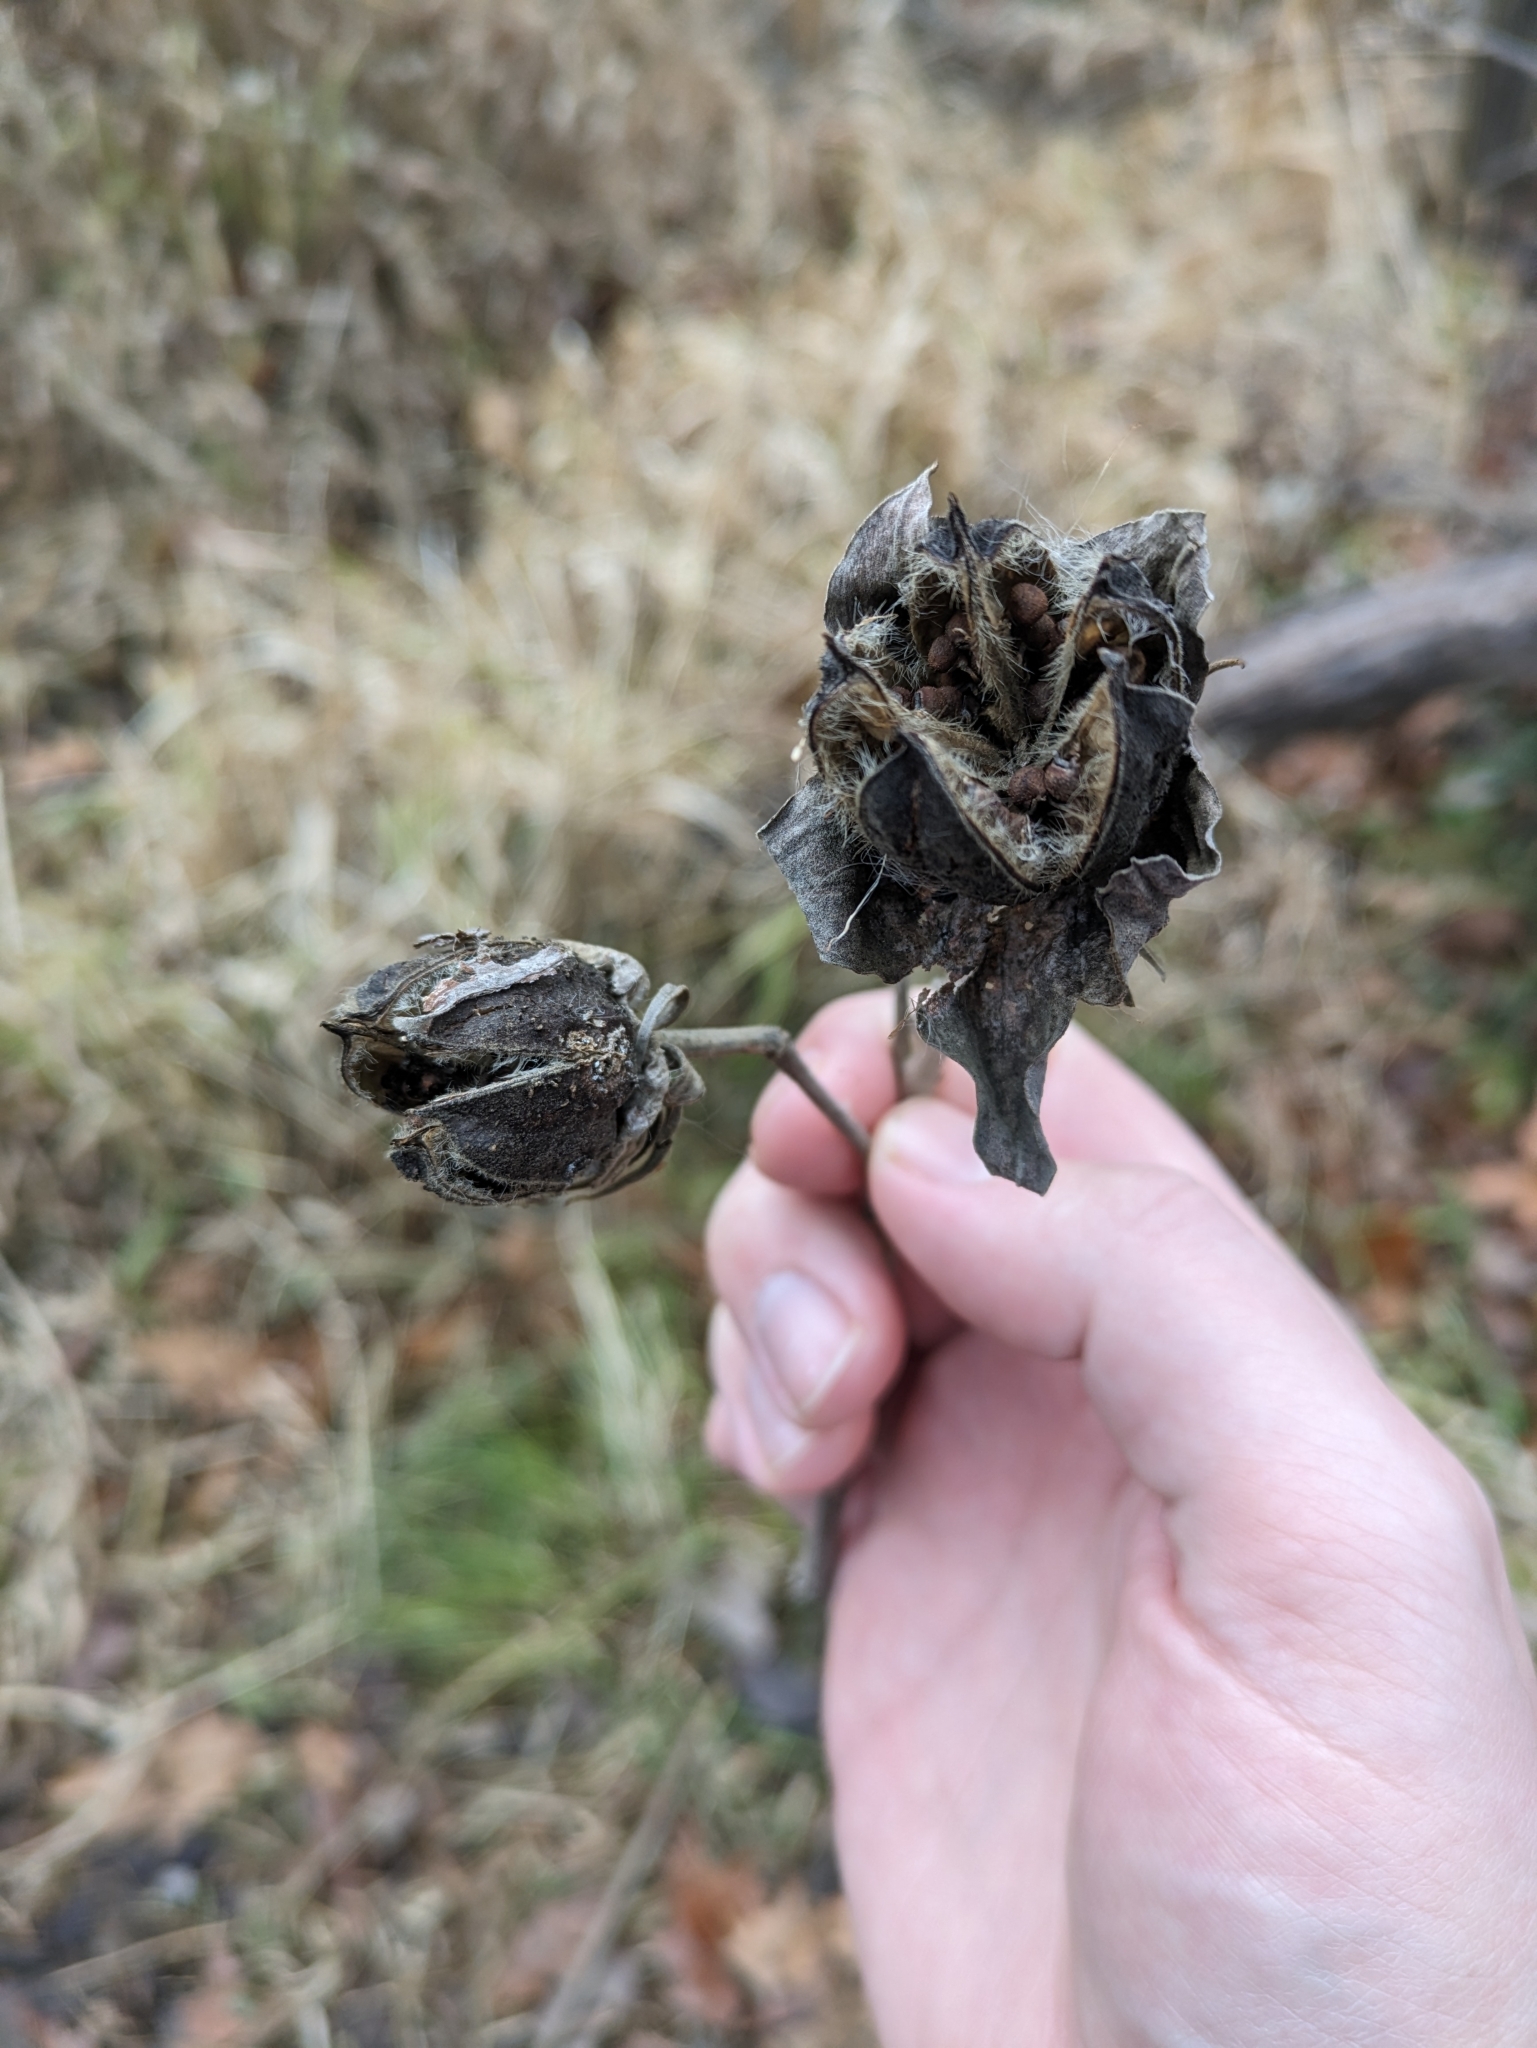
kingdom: Plantae
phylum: Tracheophyta
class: Magnoliopsida
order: Malvales
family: Malvaceae
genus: Hibiscus
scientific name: Hibiscus moscheutos
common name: Common rose-mallow
